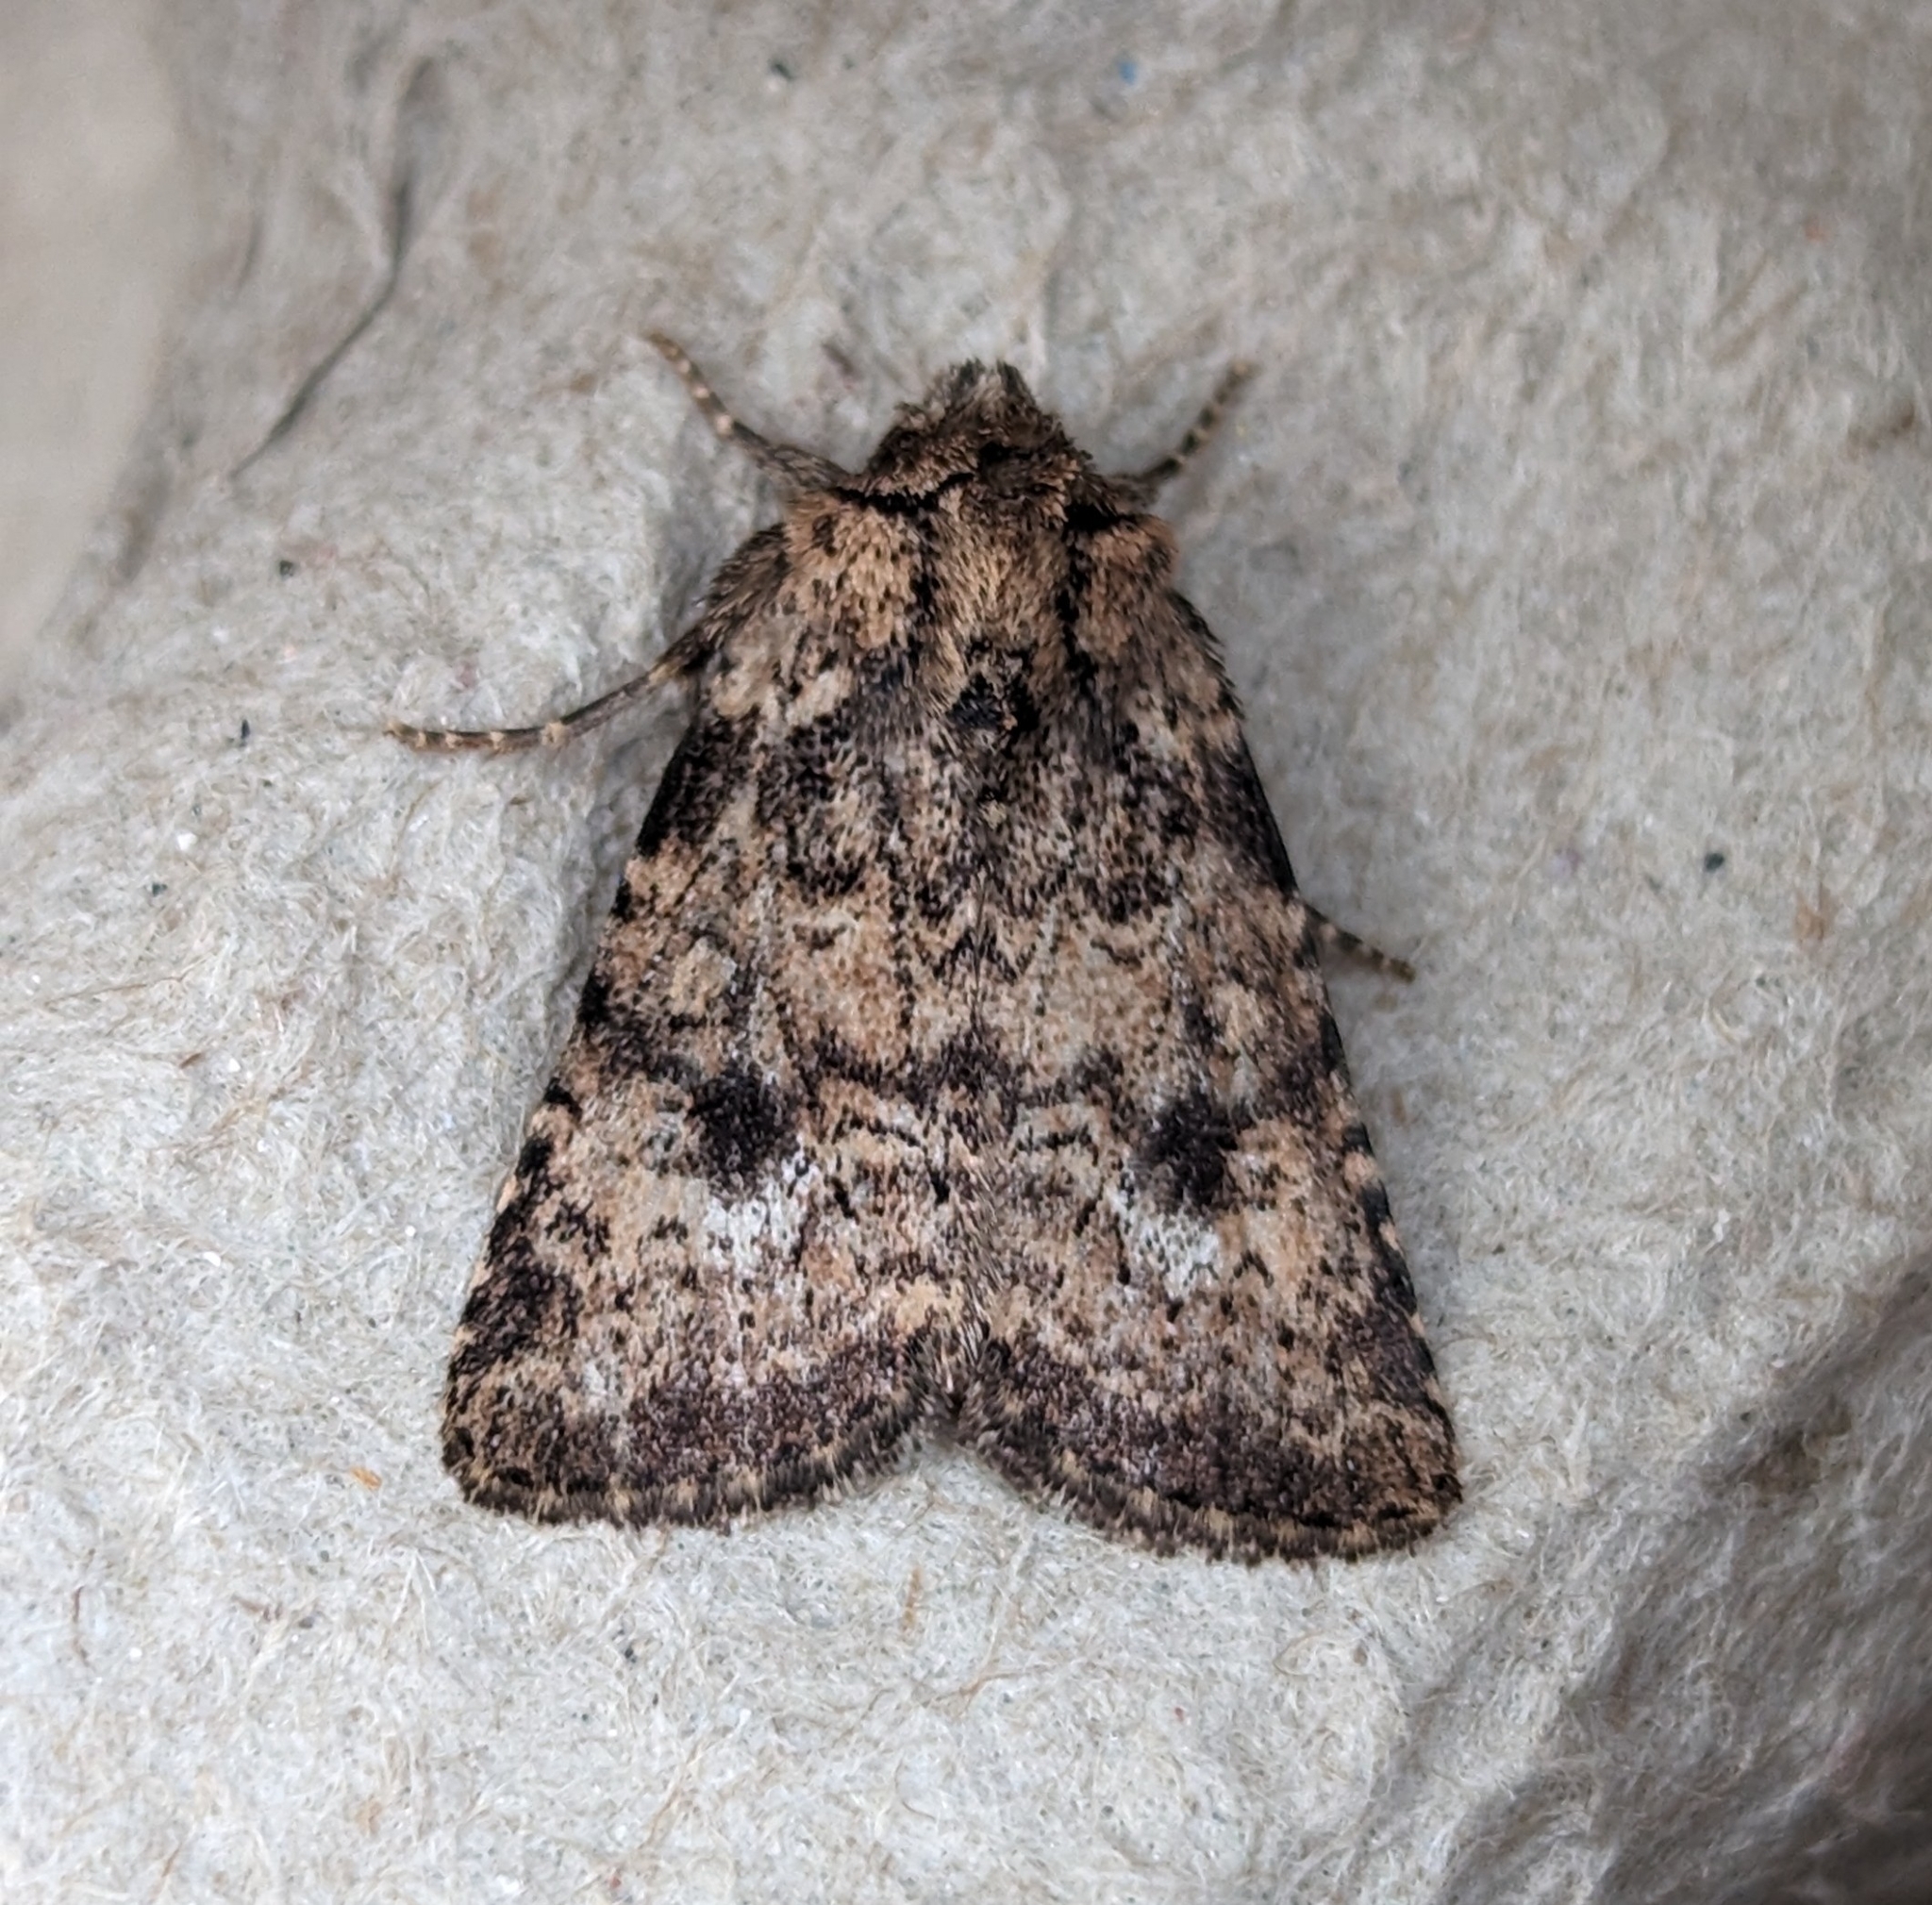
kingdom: Animalia
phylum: Arthropoda
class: Insecta
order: Lepidoptera
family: Noctuidae
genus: Homorthodes
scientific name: Homorthodes hanhami
